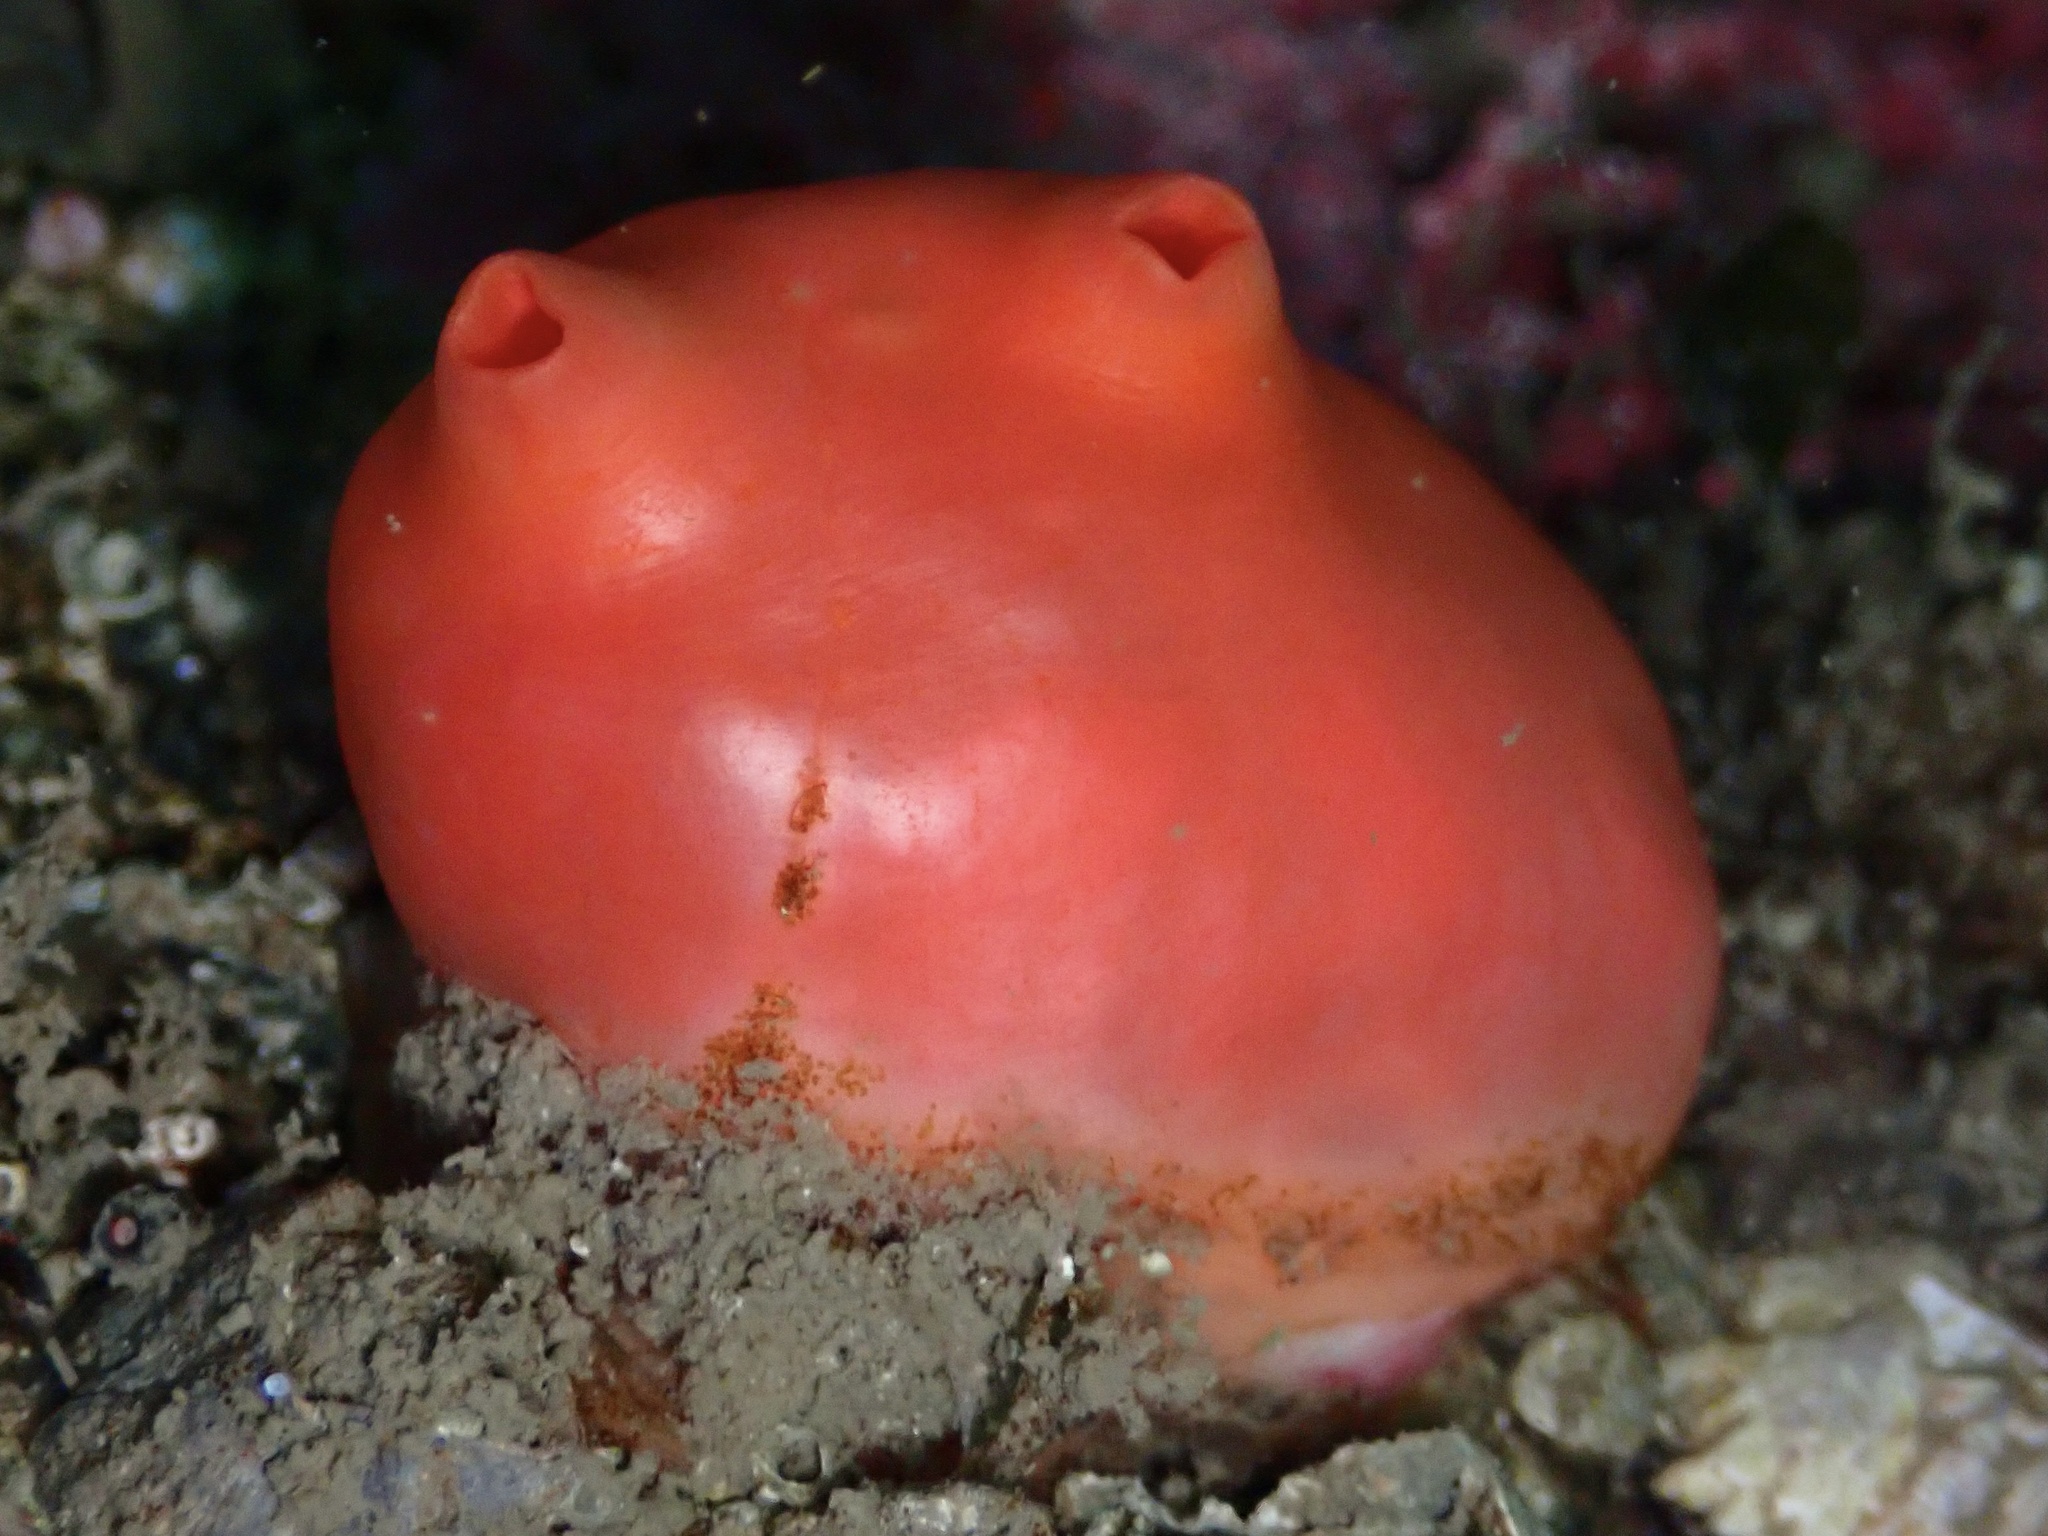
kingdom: Animalia
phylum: Chordata
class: Ascidiacea
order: Stolidobranchia
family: Styelidae
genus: Cnemidocarpa
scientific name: Cnemidocarpa finmarkiensis
